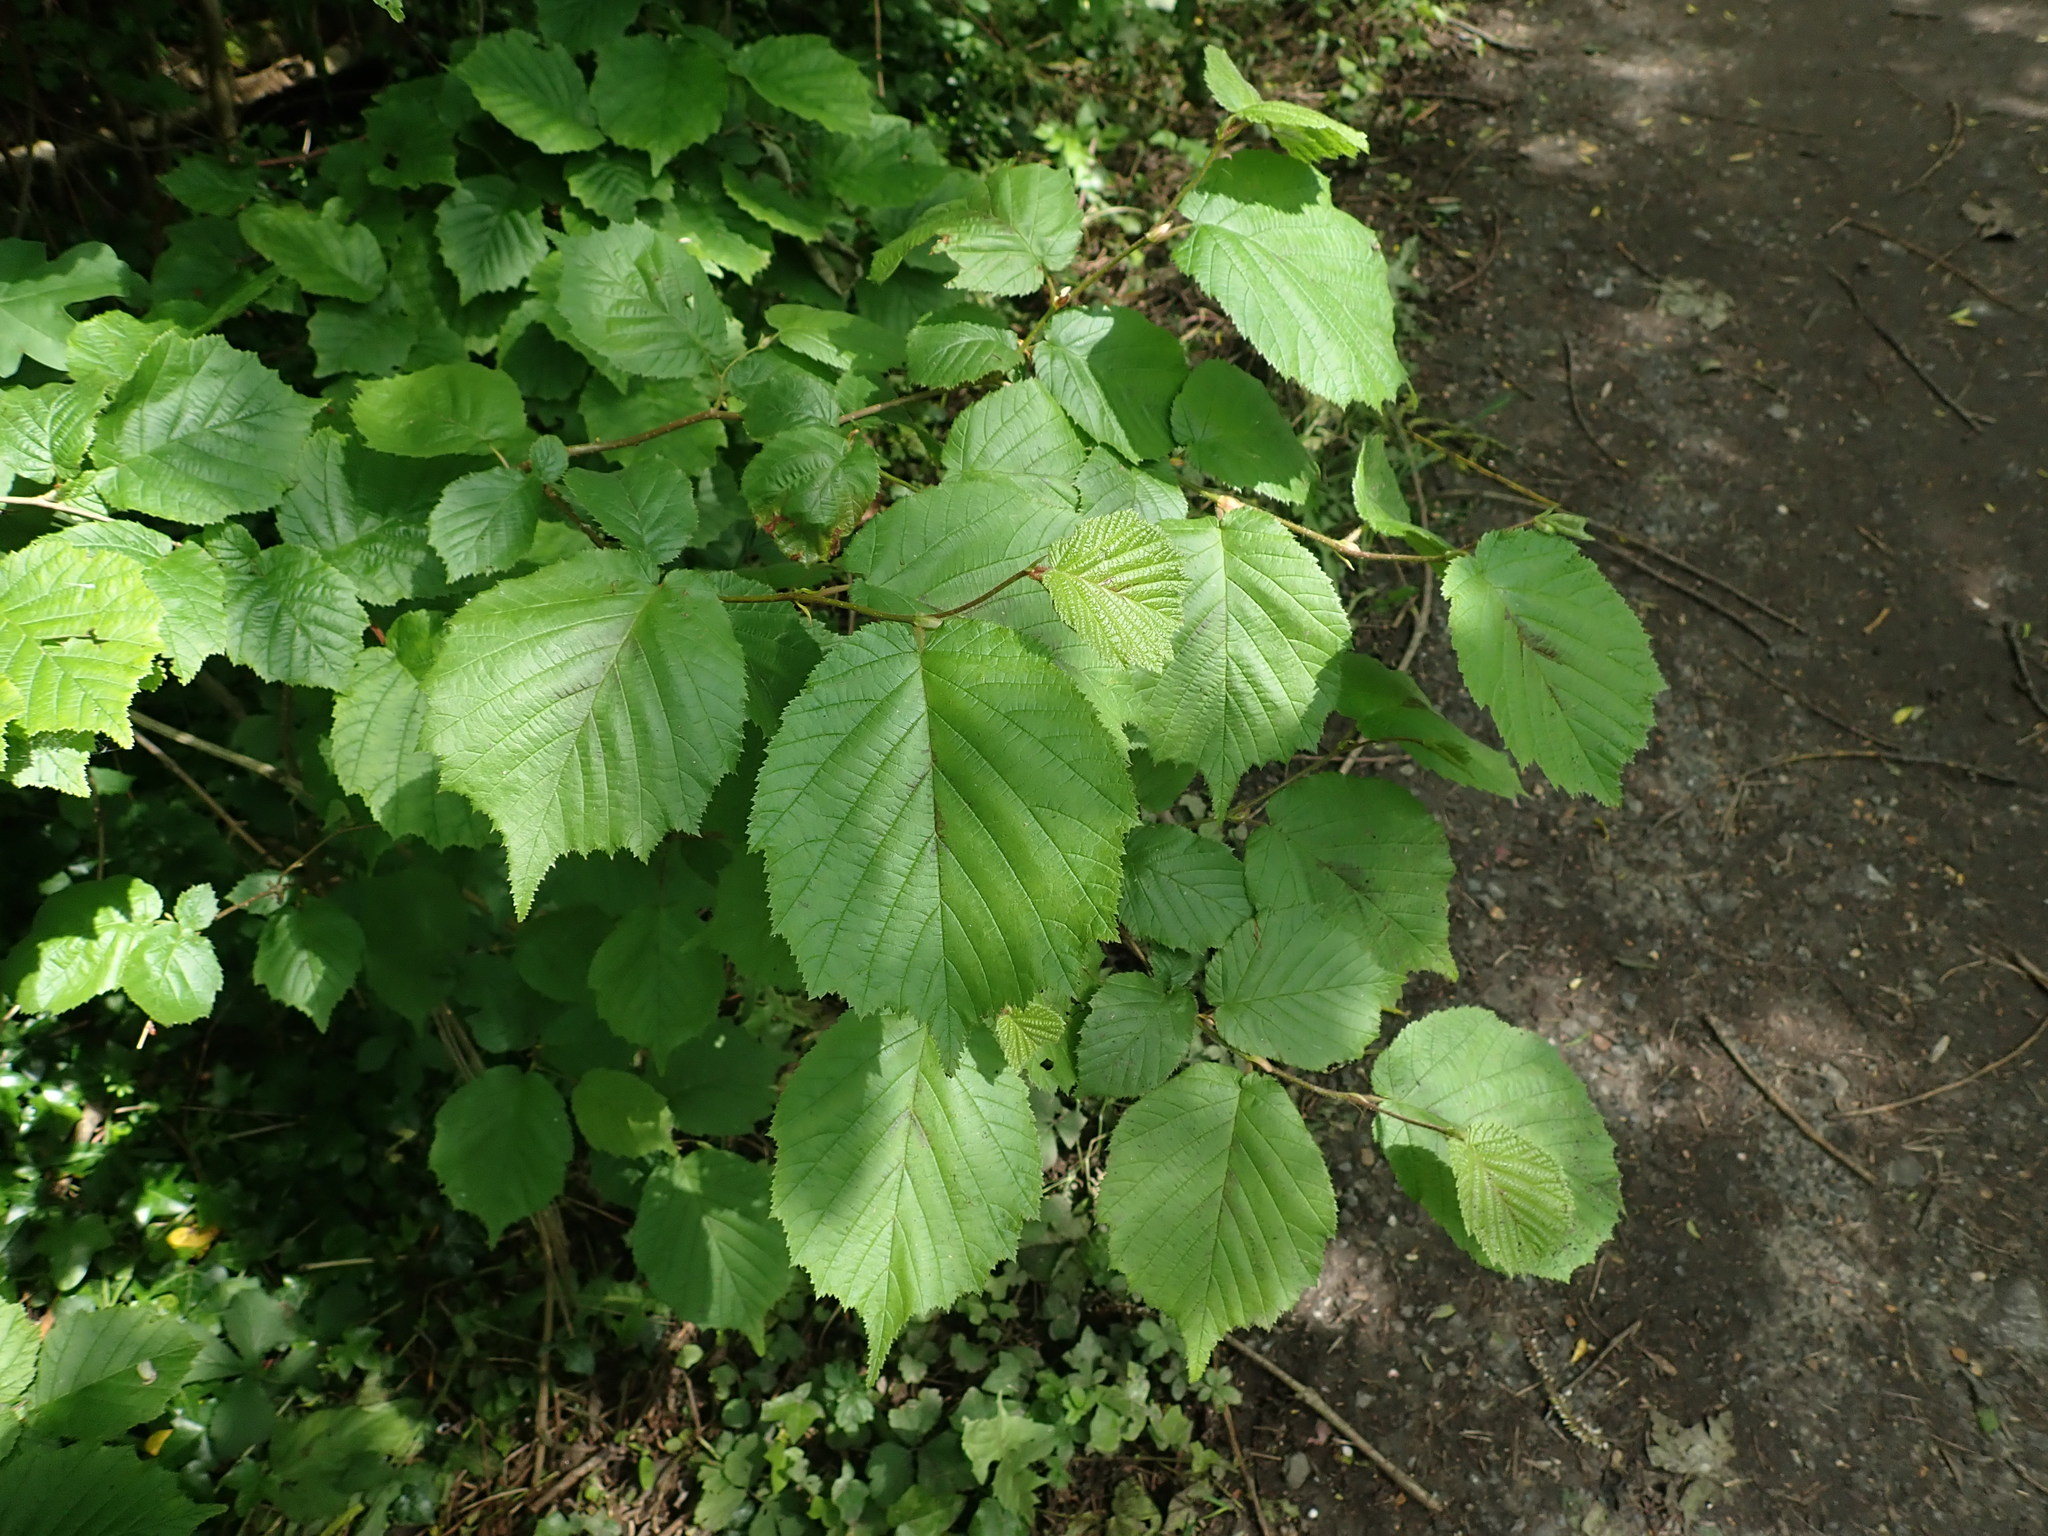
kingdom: Plantae
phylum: Tracheophyta
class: Magnoliopsida
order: Fagales
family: Betulaceae
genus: Corylus
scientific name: Corylus avellana
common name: European hazel
